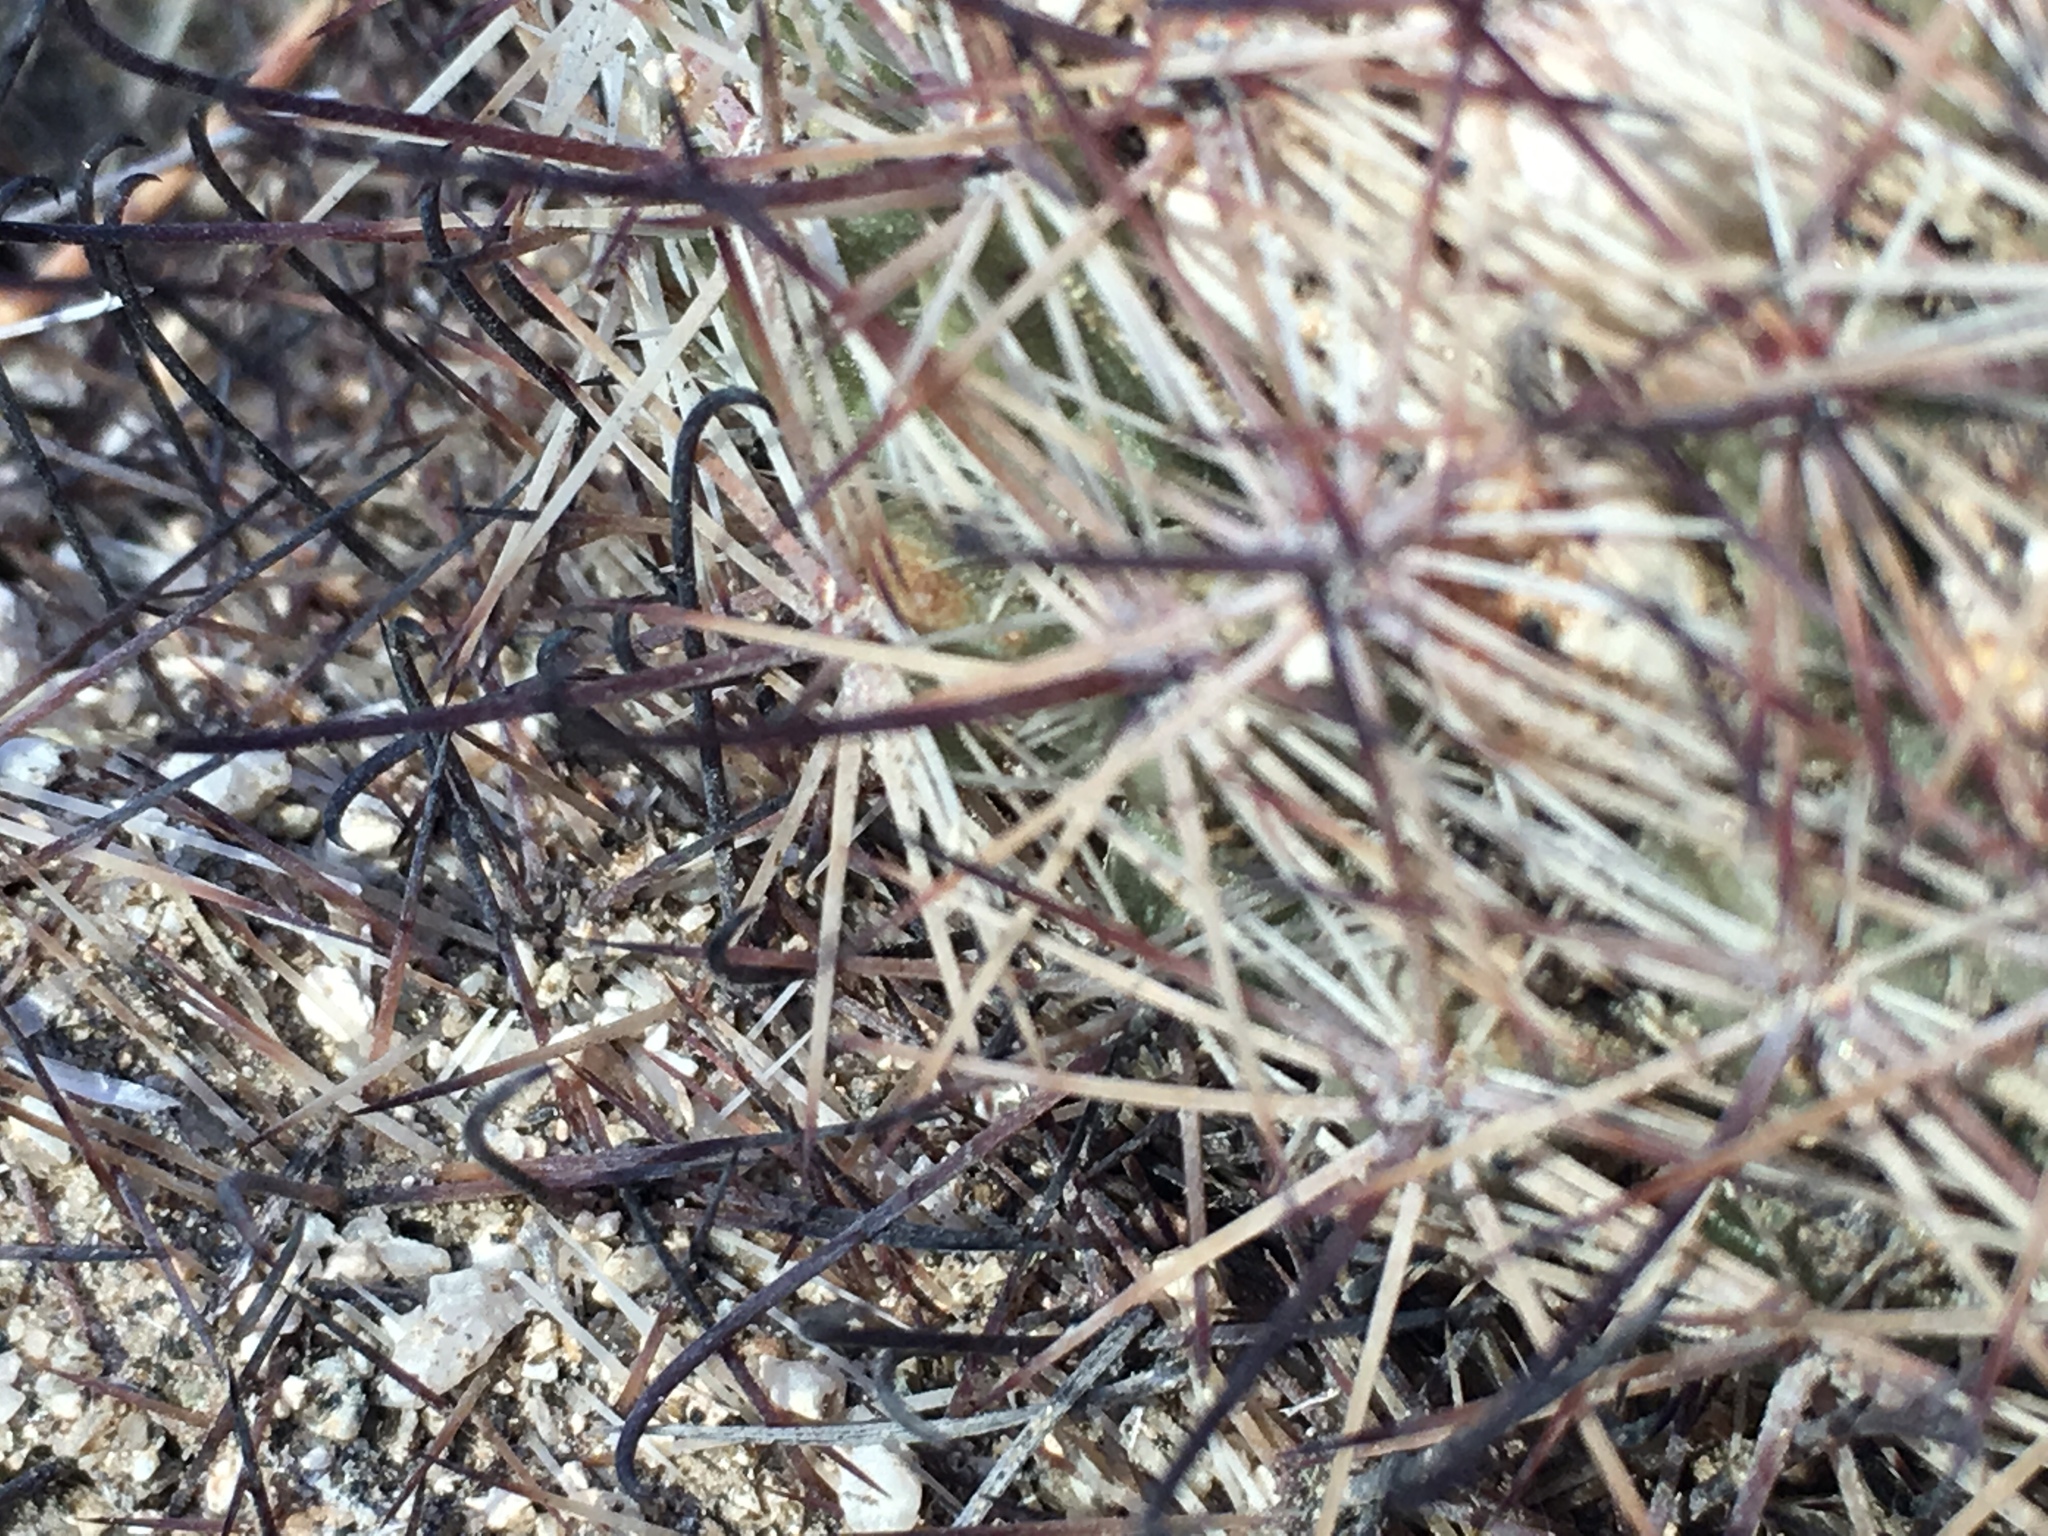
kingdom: Plantae
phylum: Tracheophyta
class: Magnoliopsida
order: Caryophyllales
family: Cactaceae
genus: Cochemiea
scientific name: Cochemiea dioica
